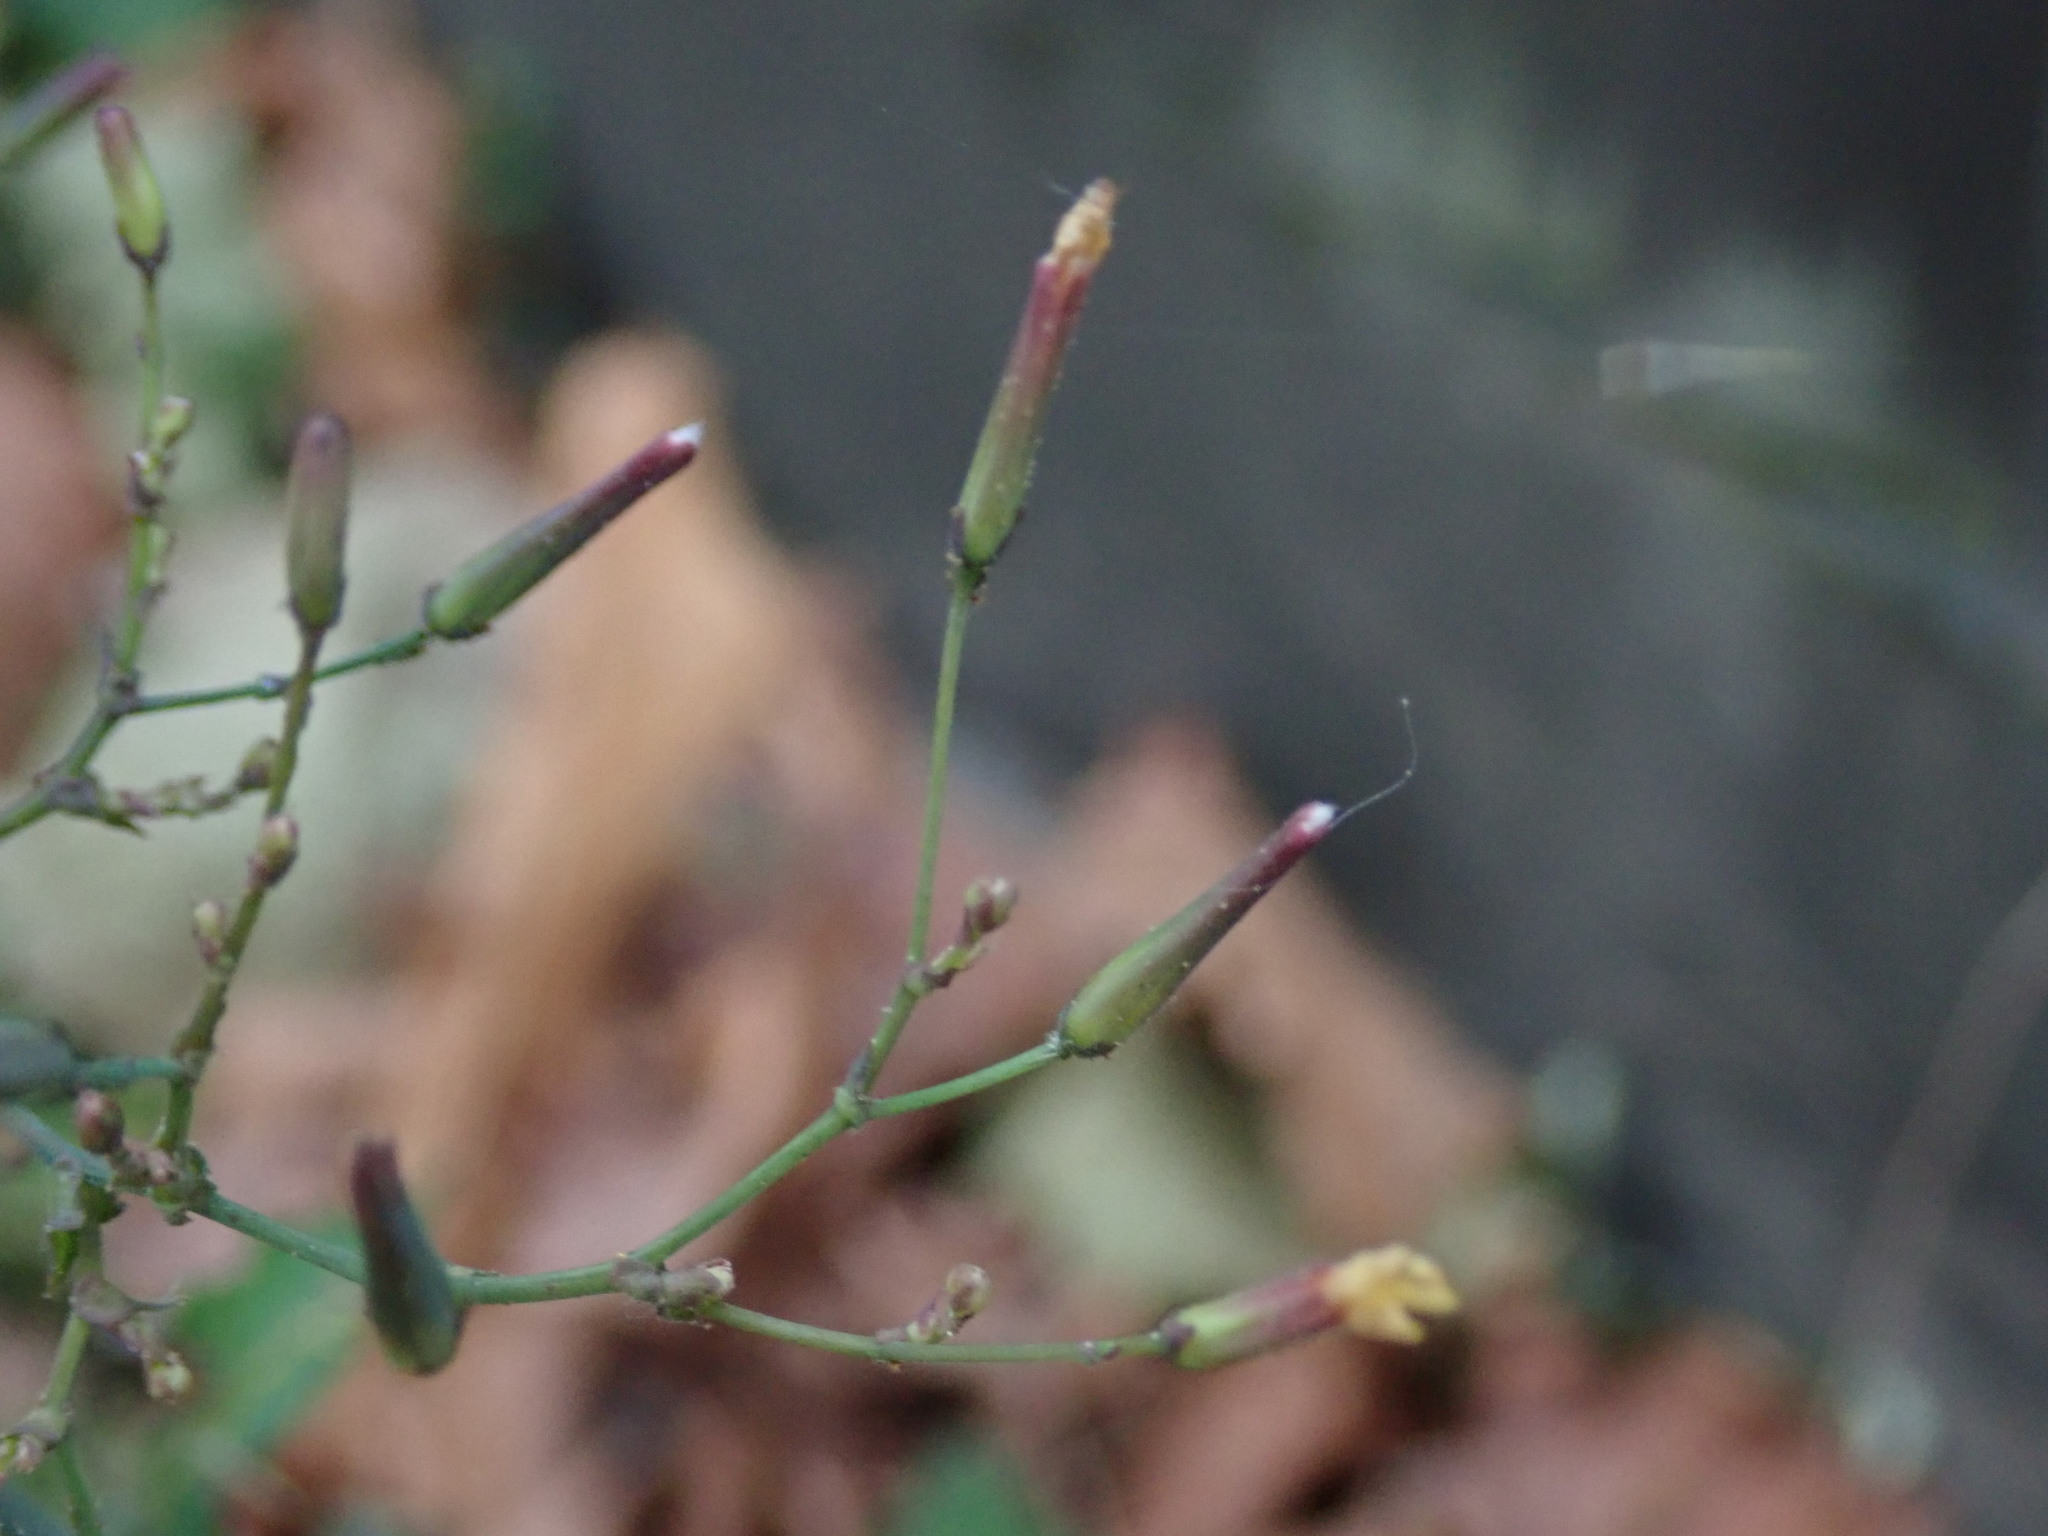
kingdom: Plantae
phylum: Tracheophyta
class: Magnoliopsida
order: Asterales
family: Asteraceae
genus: Mycelis
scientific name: Mycelis muralis
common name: Wall lettuce
